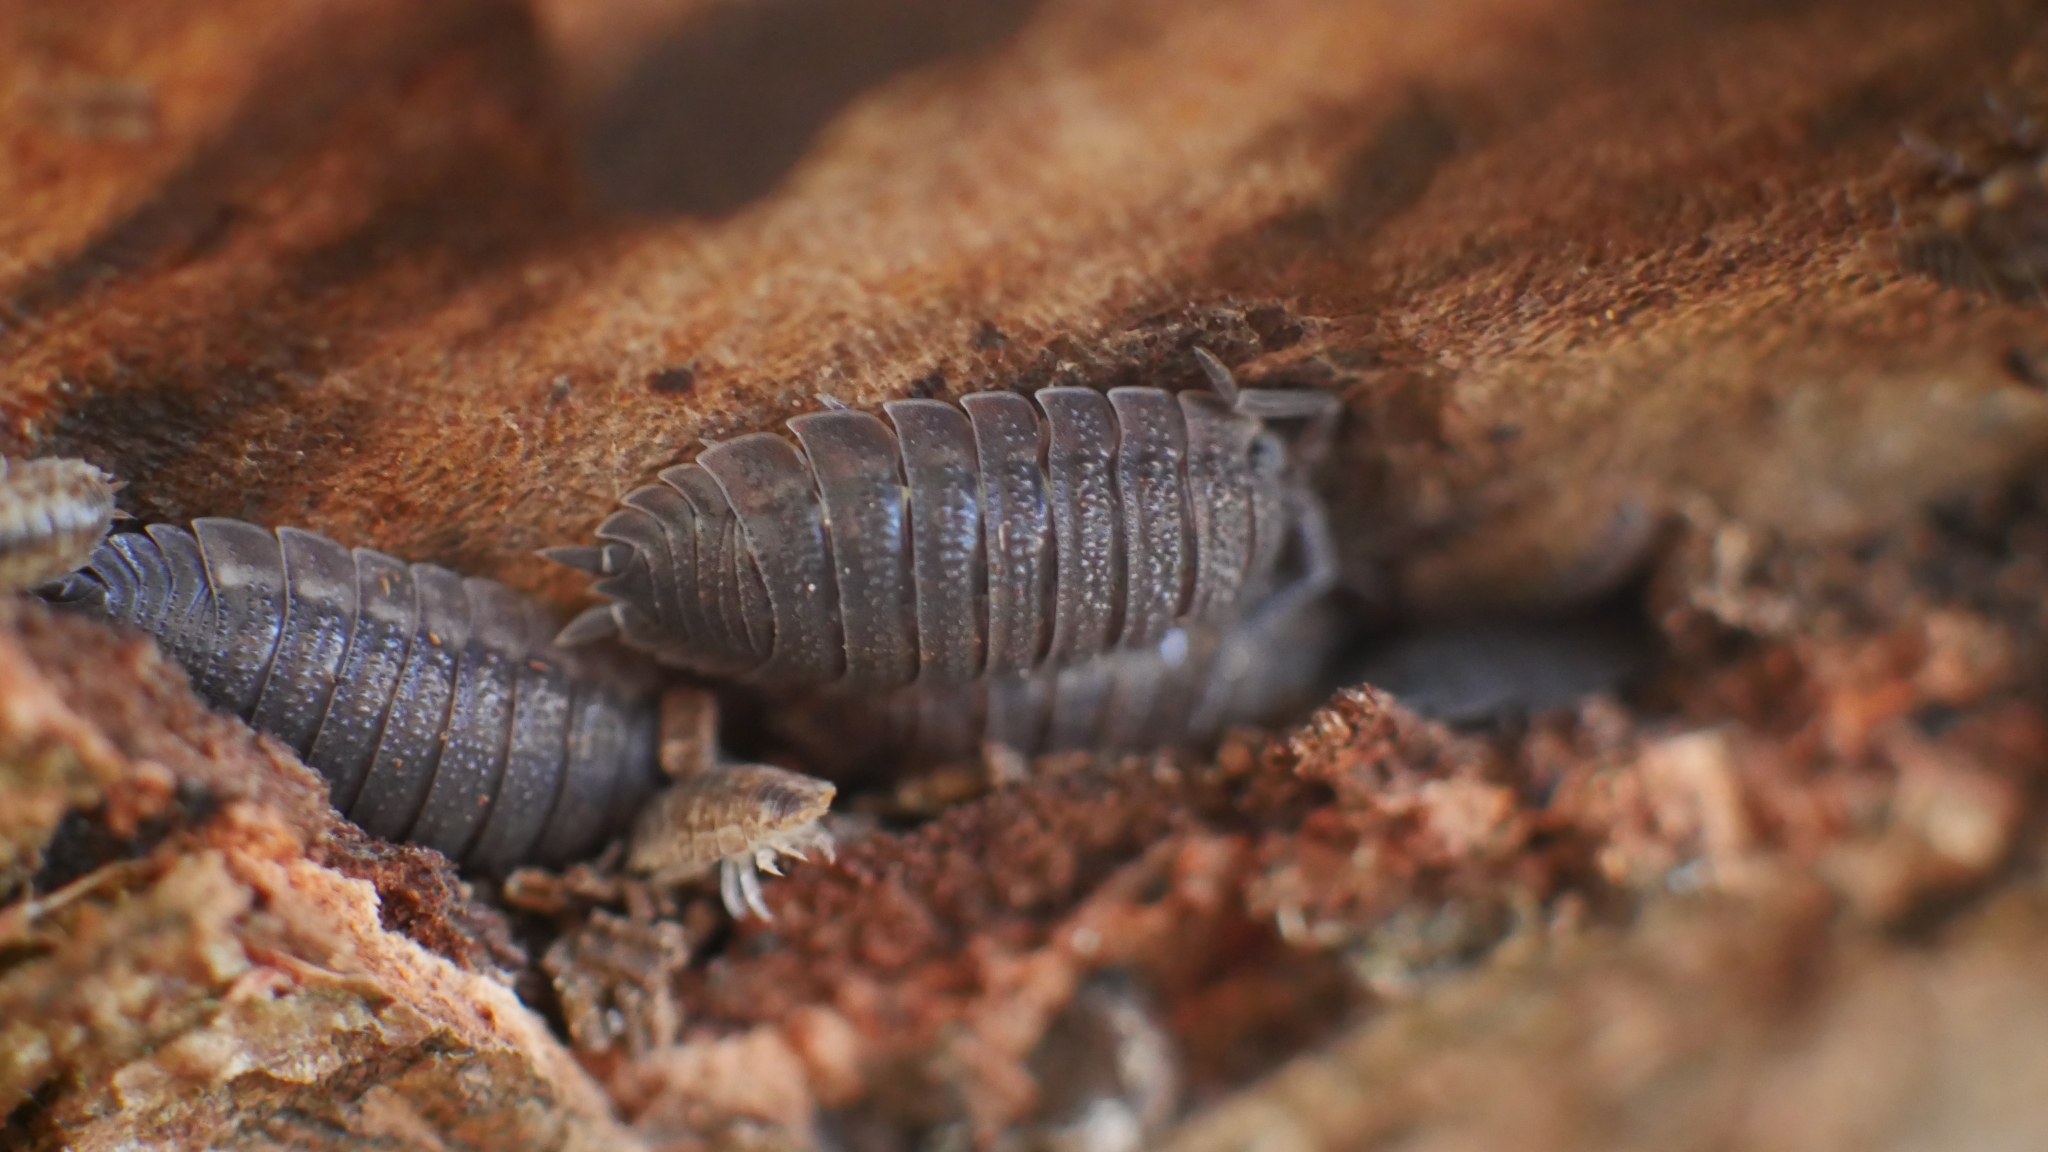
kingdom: Animalia
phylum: Arthropoda
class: Malacostraca
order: Isopoda
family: Porcellionidae
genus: Porcellio
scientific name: Porcellio scaber
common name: Common rough woodlouse
